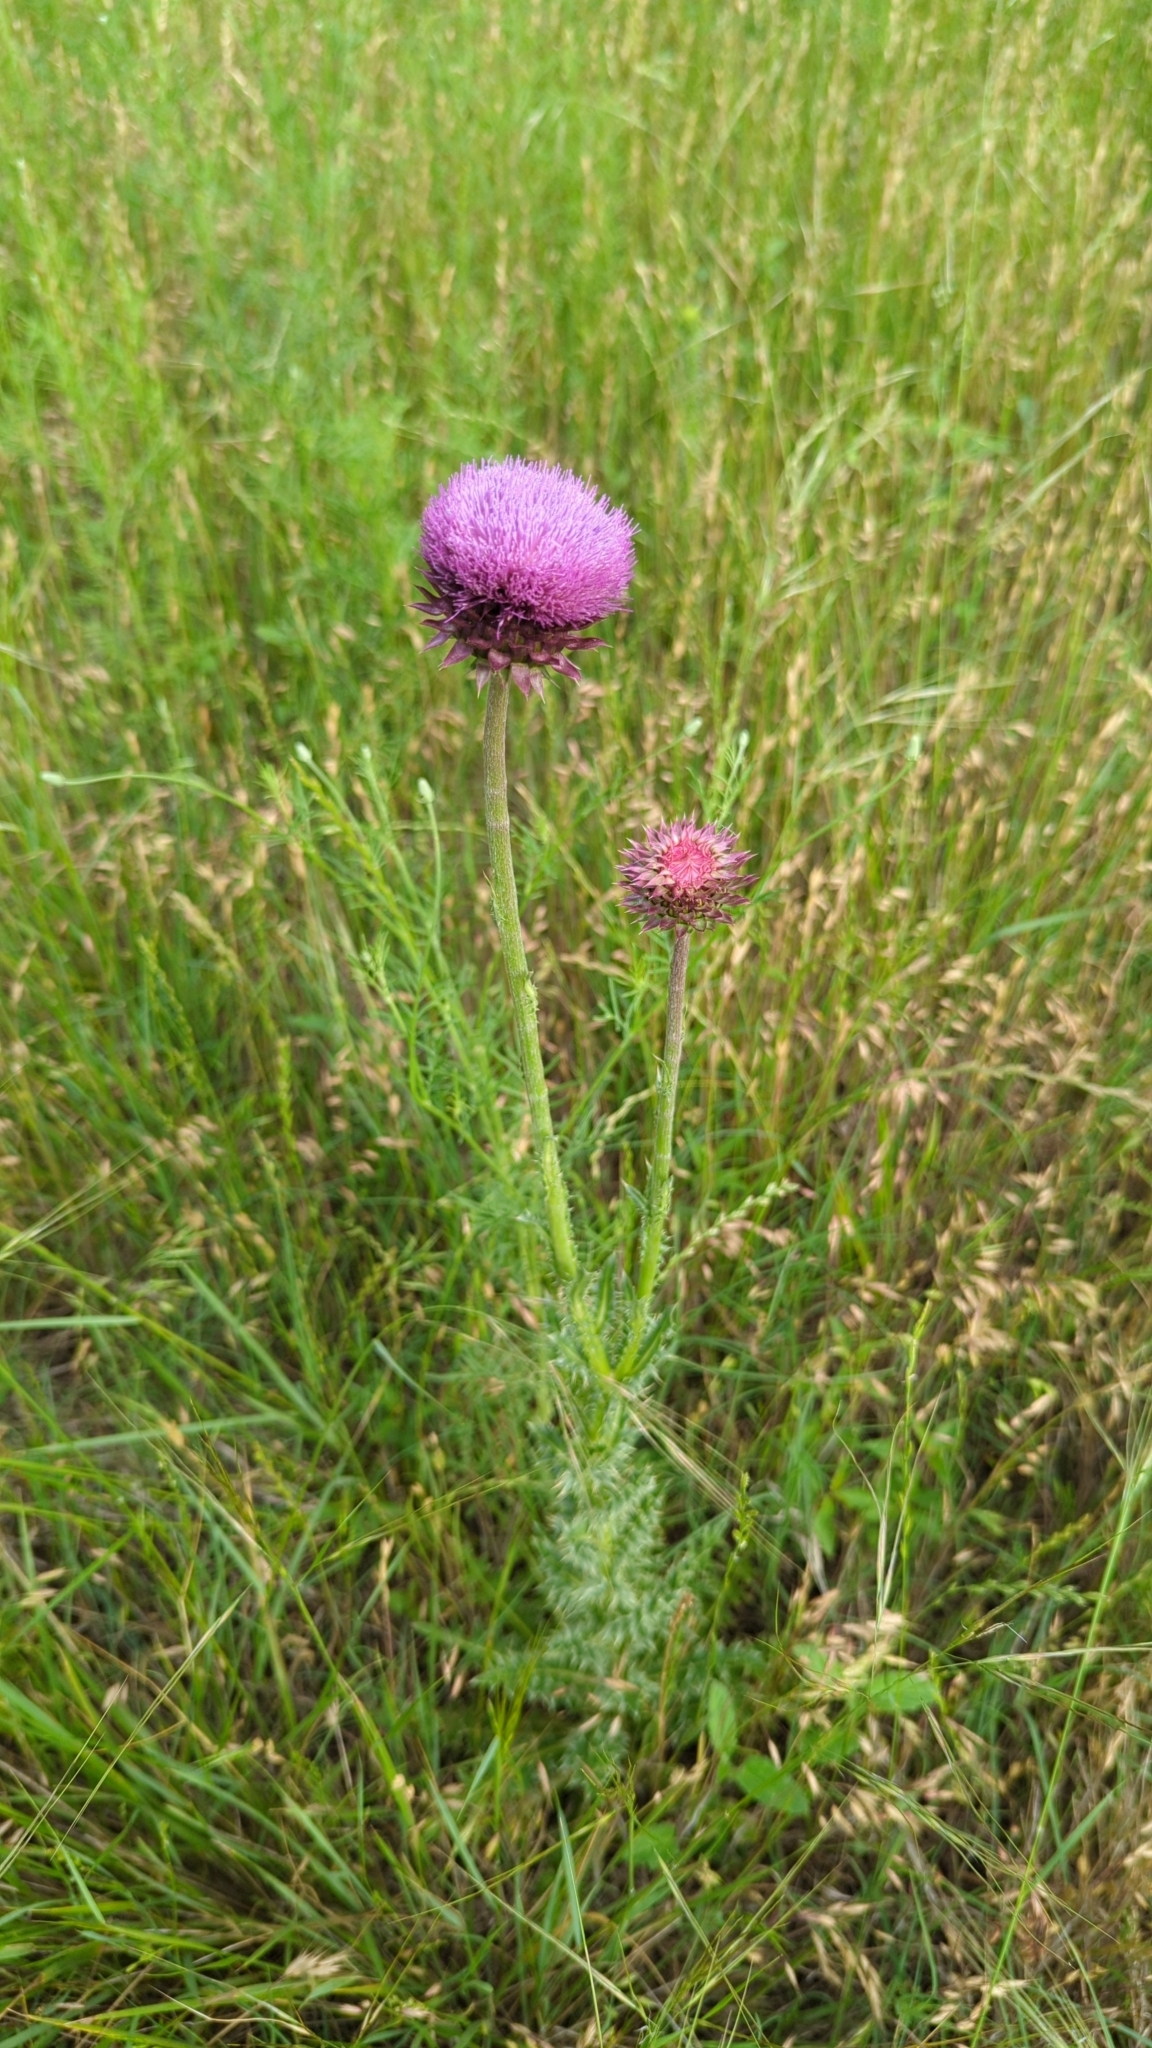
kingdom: Plantae
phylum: Tracheophyta
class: Magnoliopsida
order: Asterales
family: Asteraceae
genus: Carduus
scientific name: Carduus nutans
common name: Musk thistle
